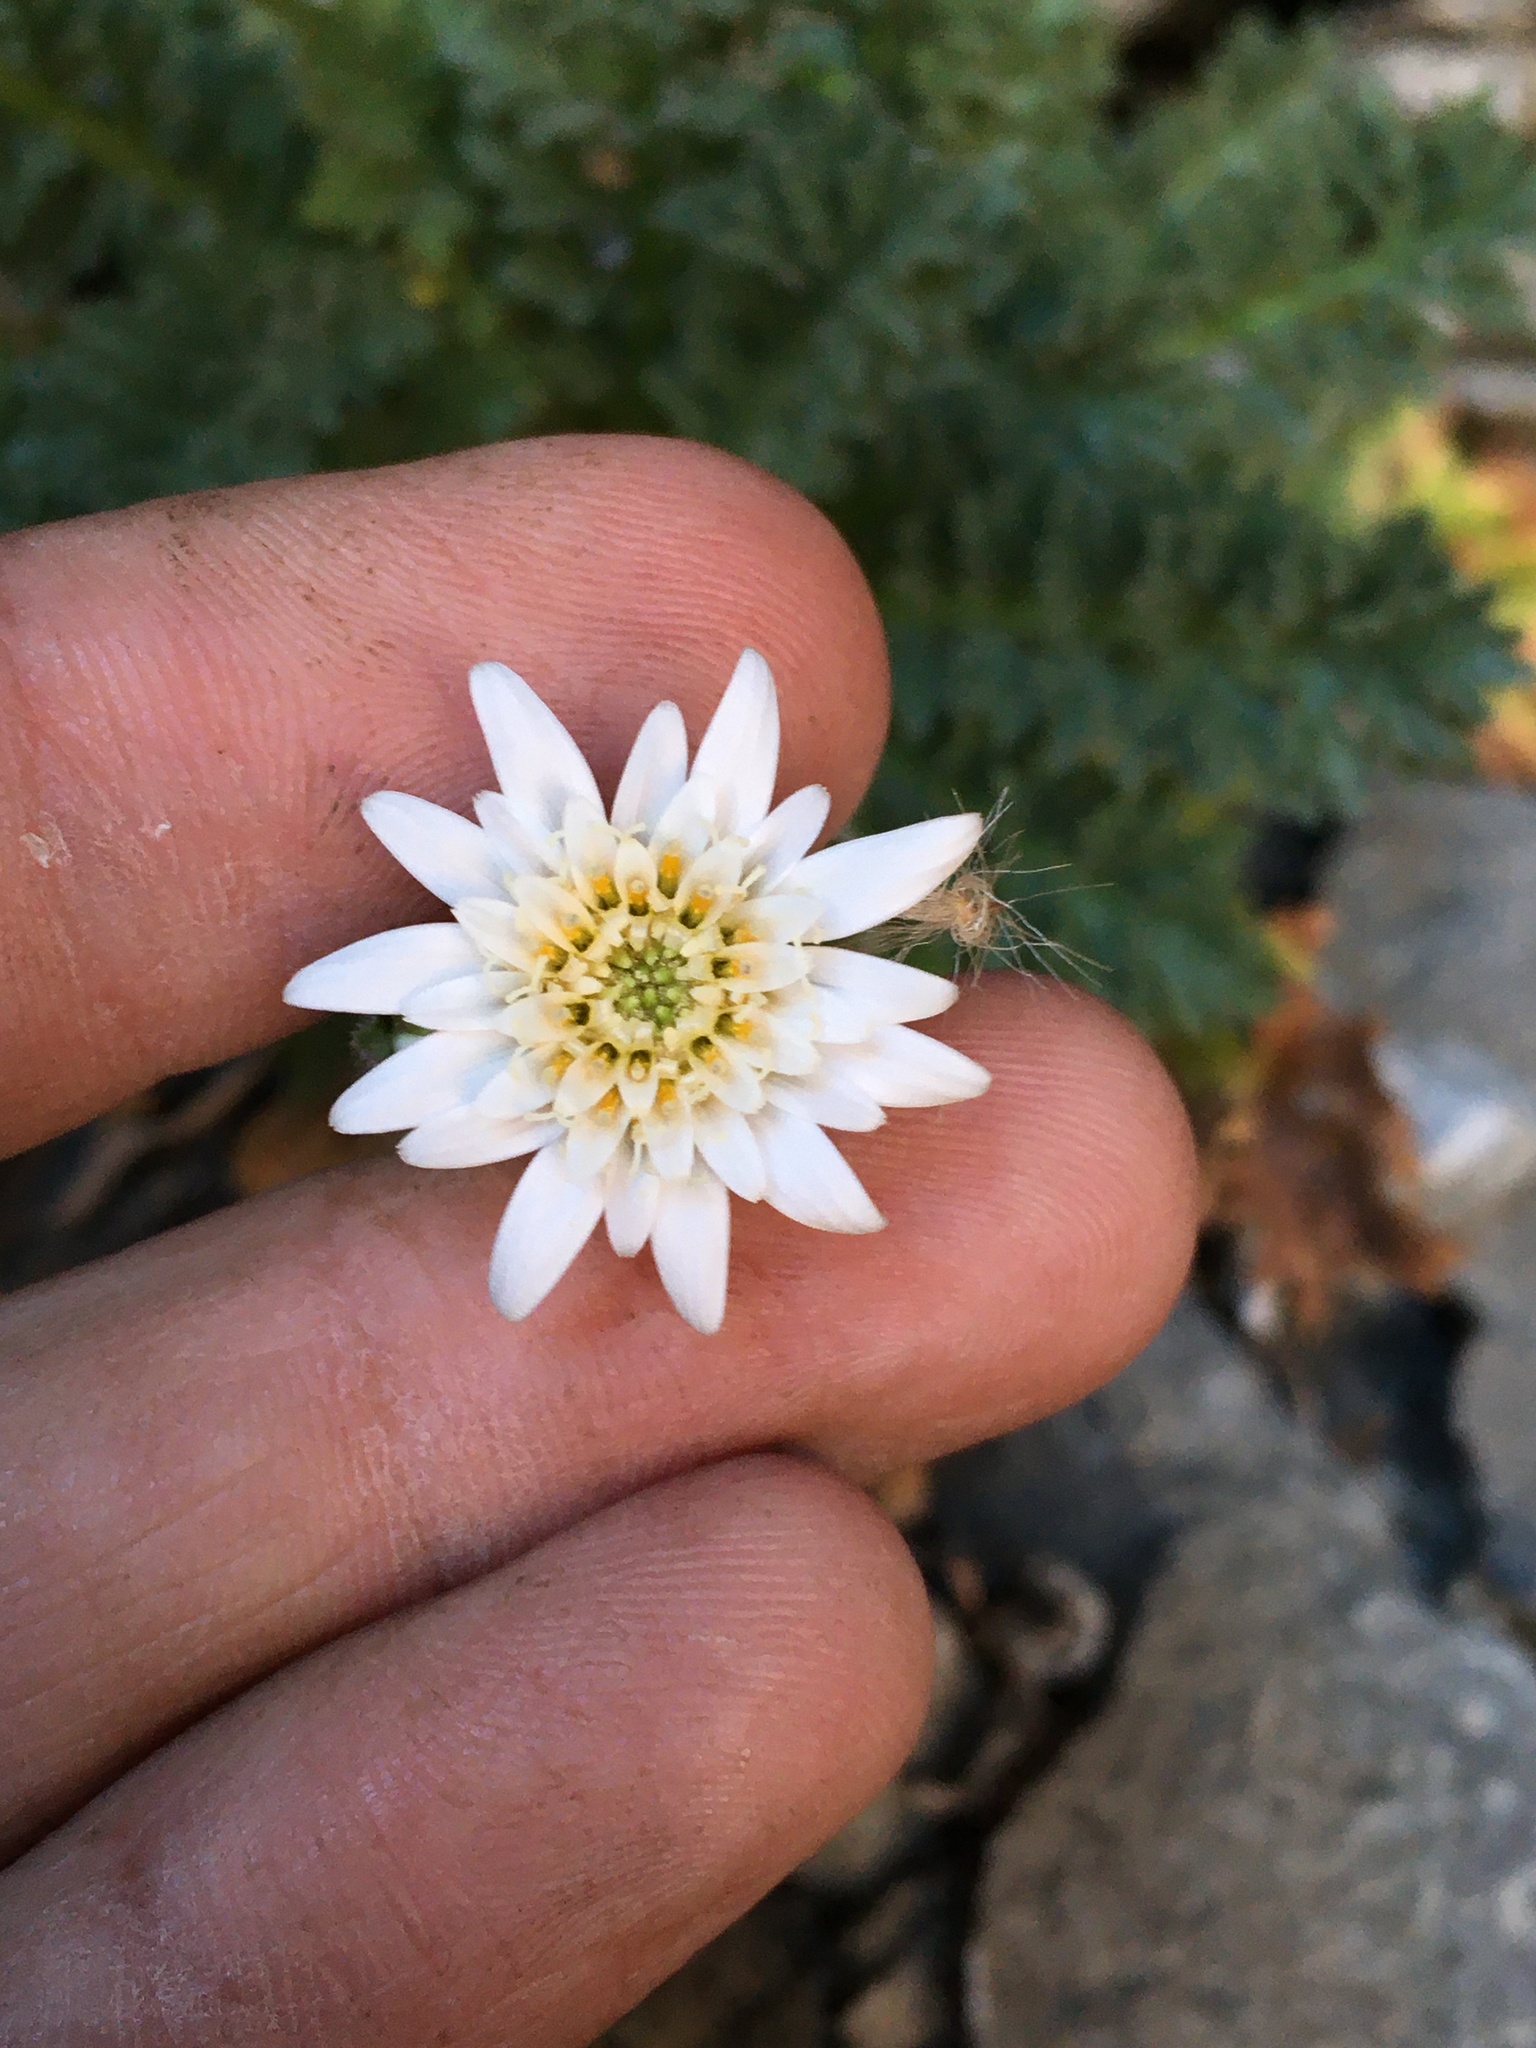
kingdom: Plantae
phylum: Tracheophyta
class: Magnoliopsida
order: Asterales
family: Asteraceae
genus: Leucheria
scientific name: Leucheria salina
